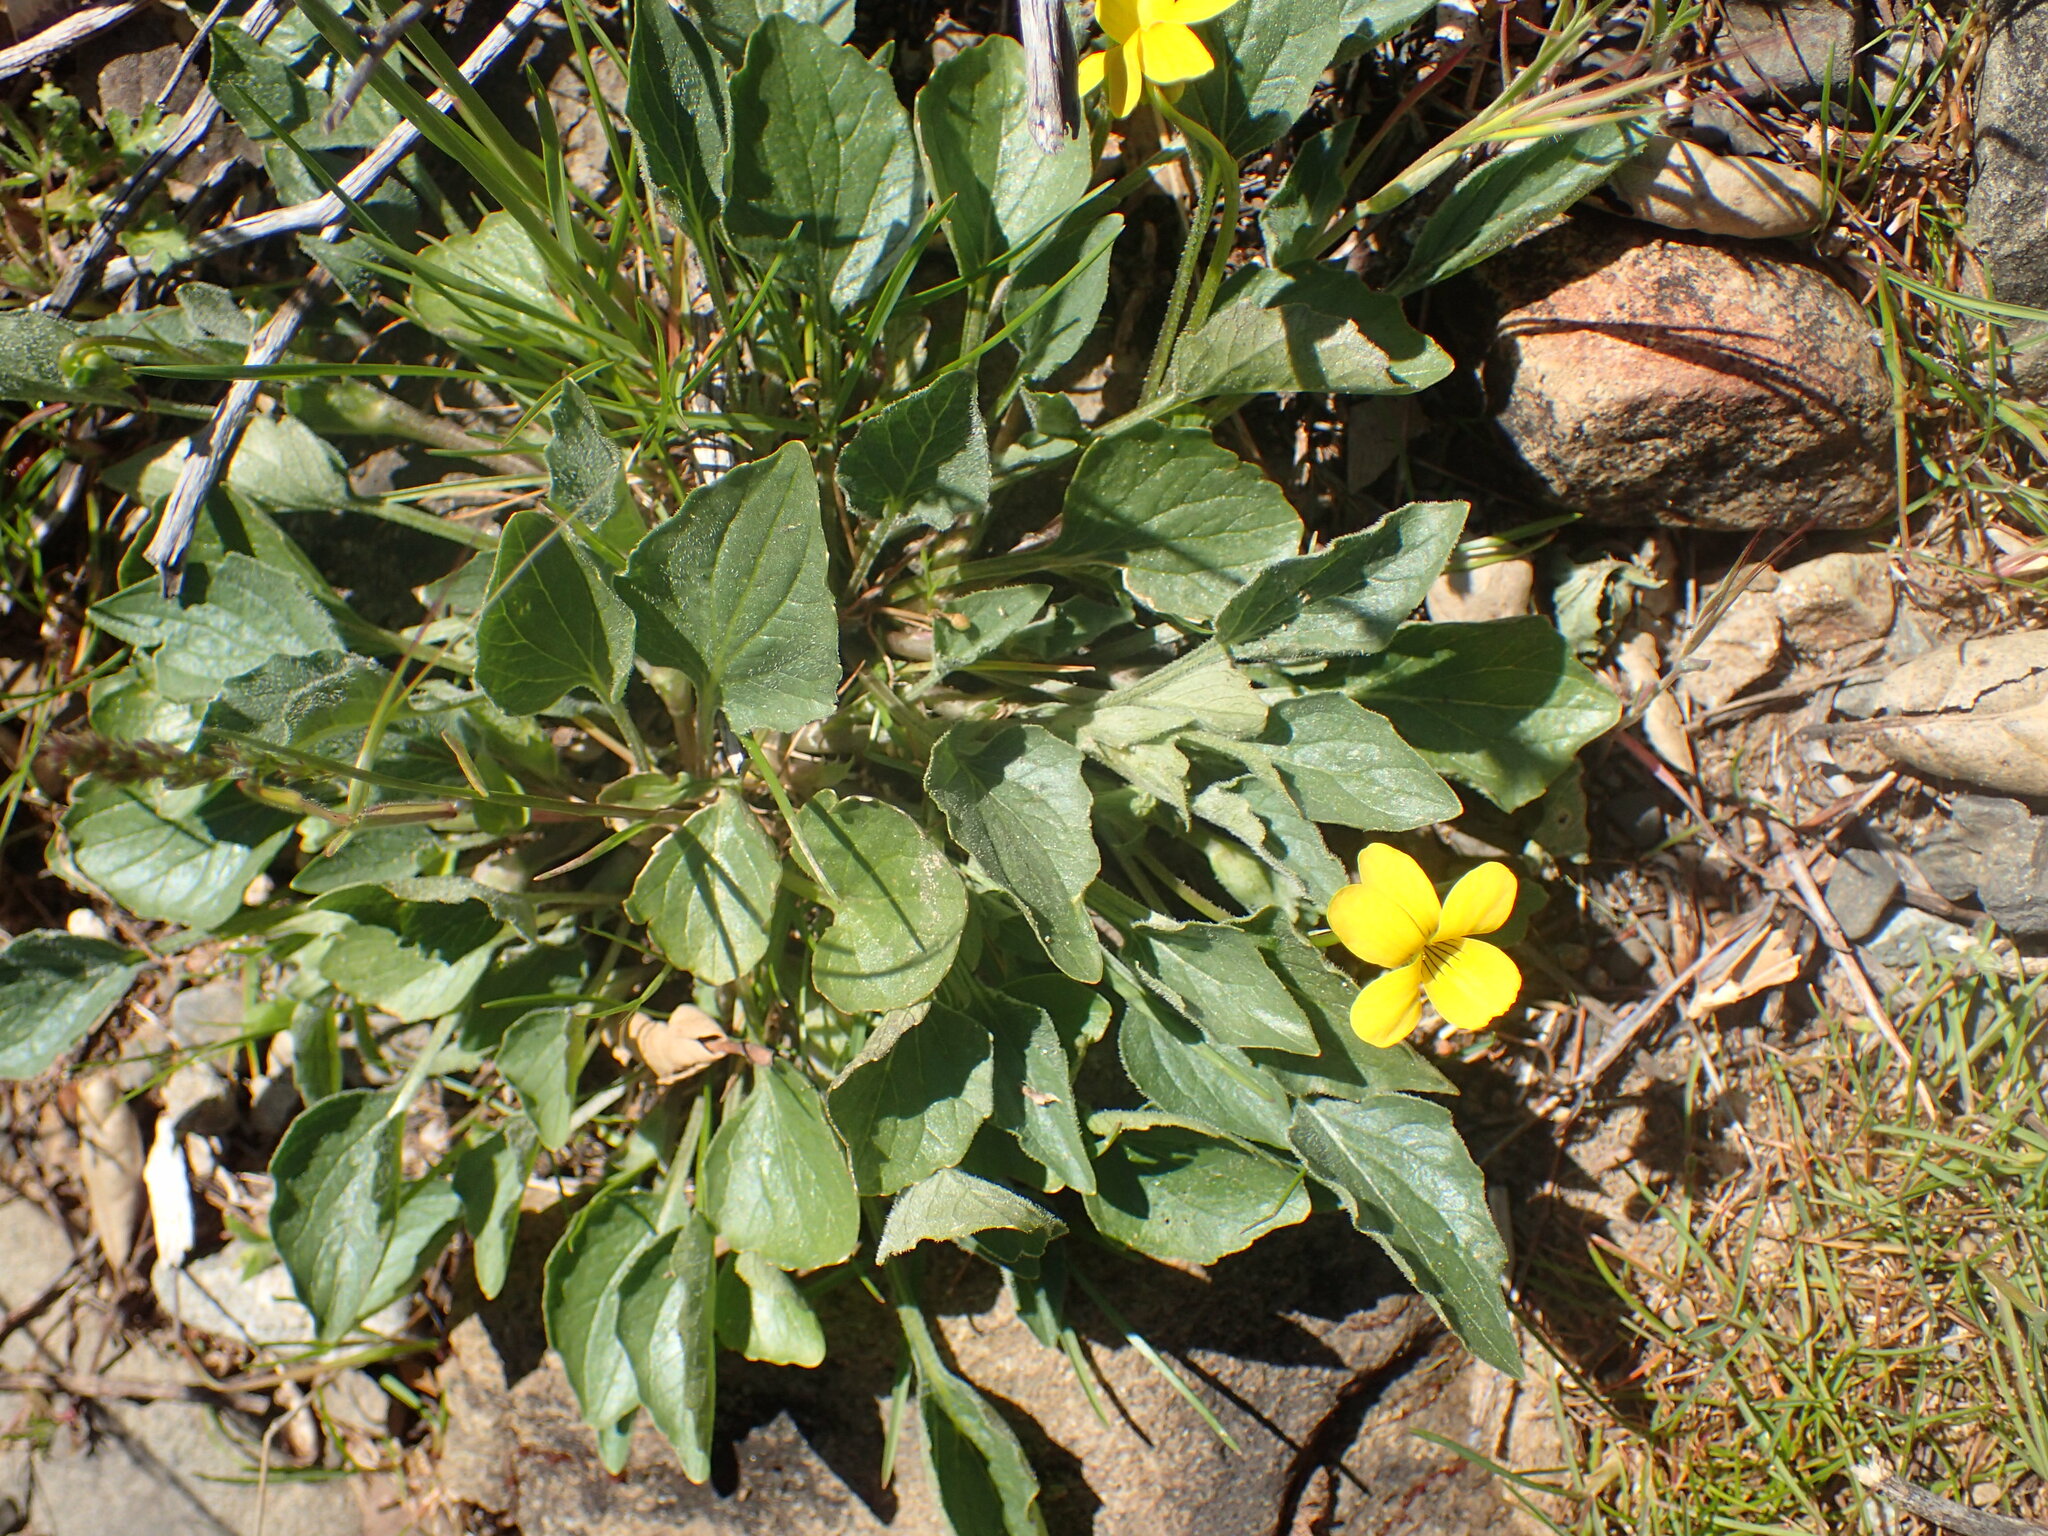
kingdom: Plantae
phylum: Tracheophyta
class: Magnoliopsida
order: Malpighiales
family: Violaceae
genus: Viola
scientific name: Viola purpurea
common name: Pine violet
